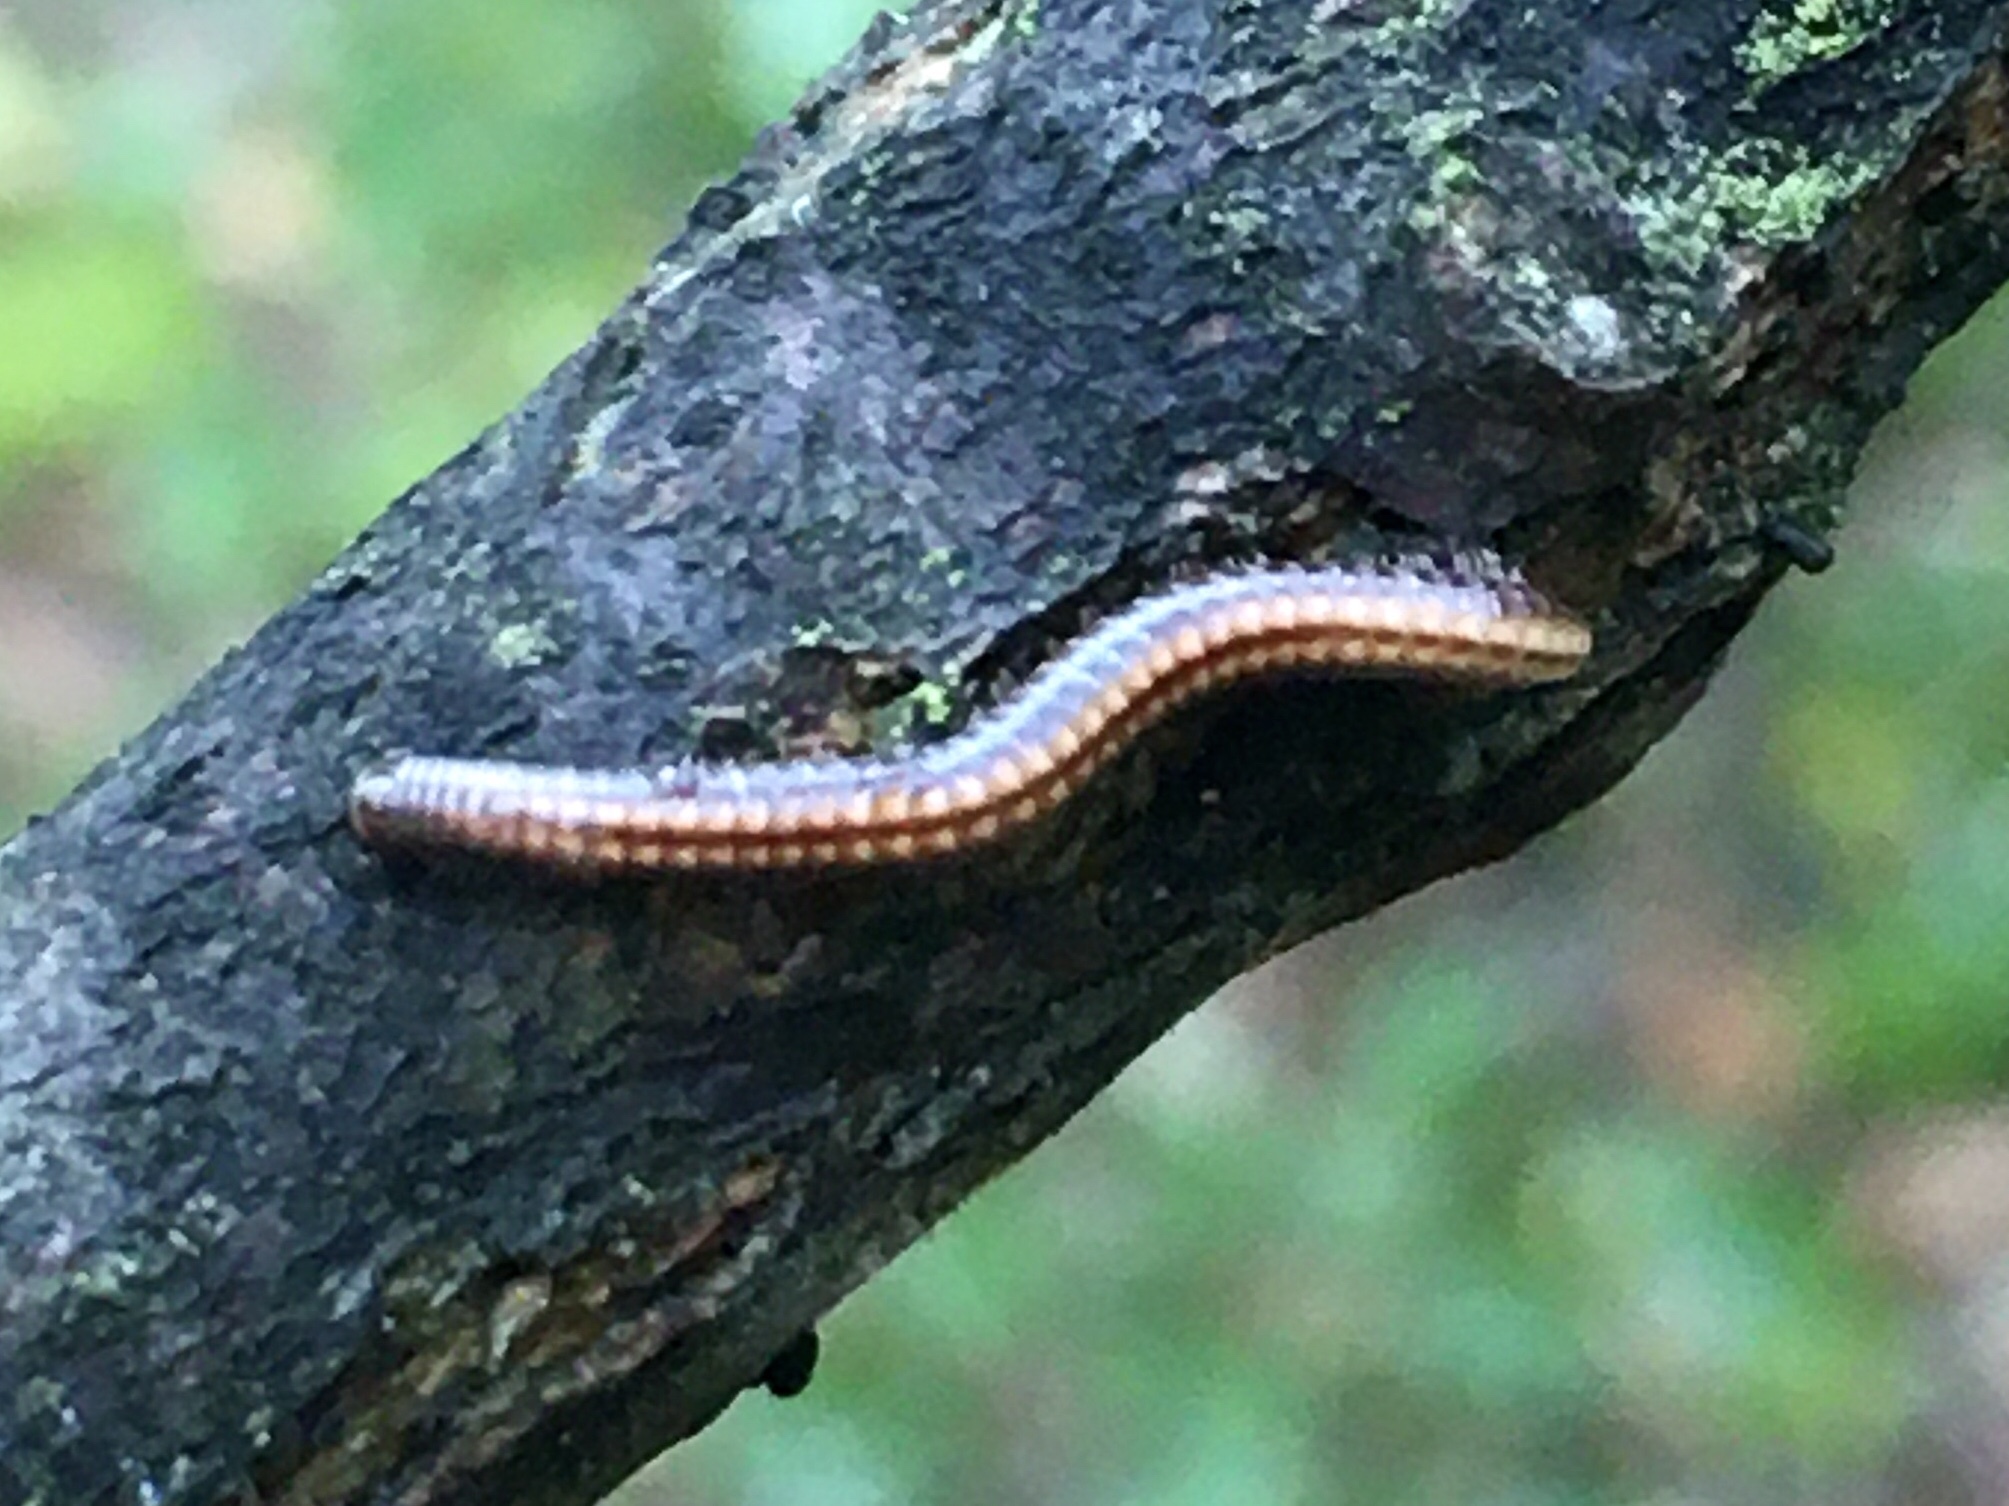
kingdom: Animalia
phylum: Arthropoda
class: Diplopoda
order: Julida
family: Julidae
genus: Ommatoiulus
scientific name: Ommatoiulus sabulosus
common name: Striped millipede
